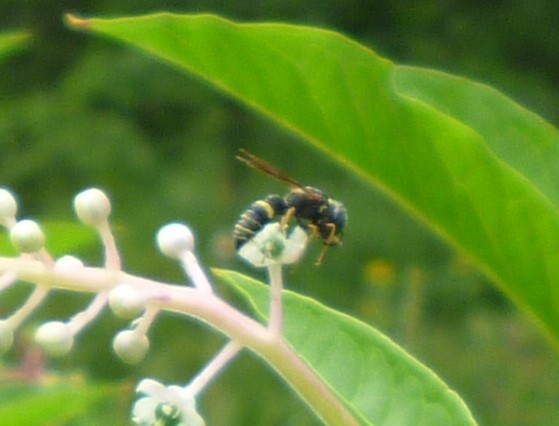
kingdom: Animalia
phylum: Arthropoda
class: Insecta
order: Hymenoptera
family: Crabronidae
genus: Philanthus
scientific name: Philanthus gibbosus
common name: Humped beewolf
